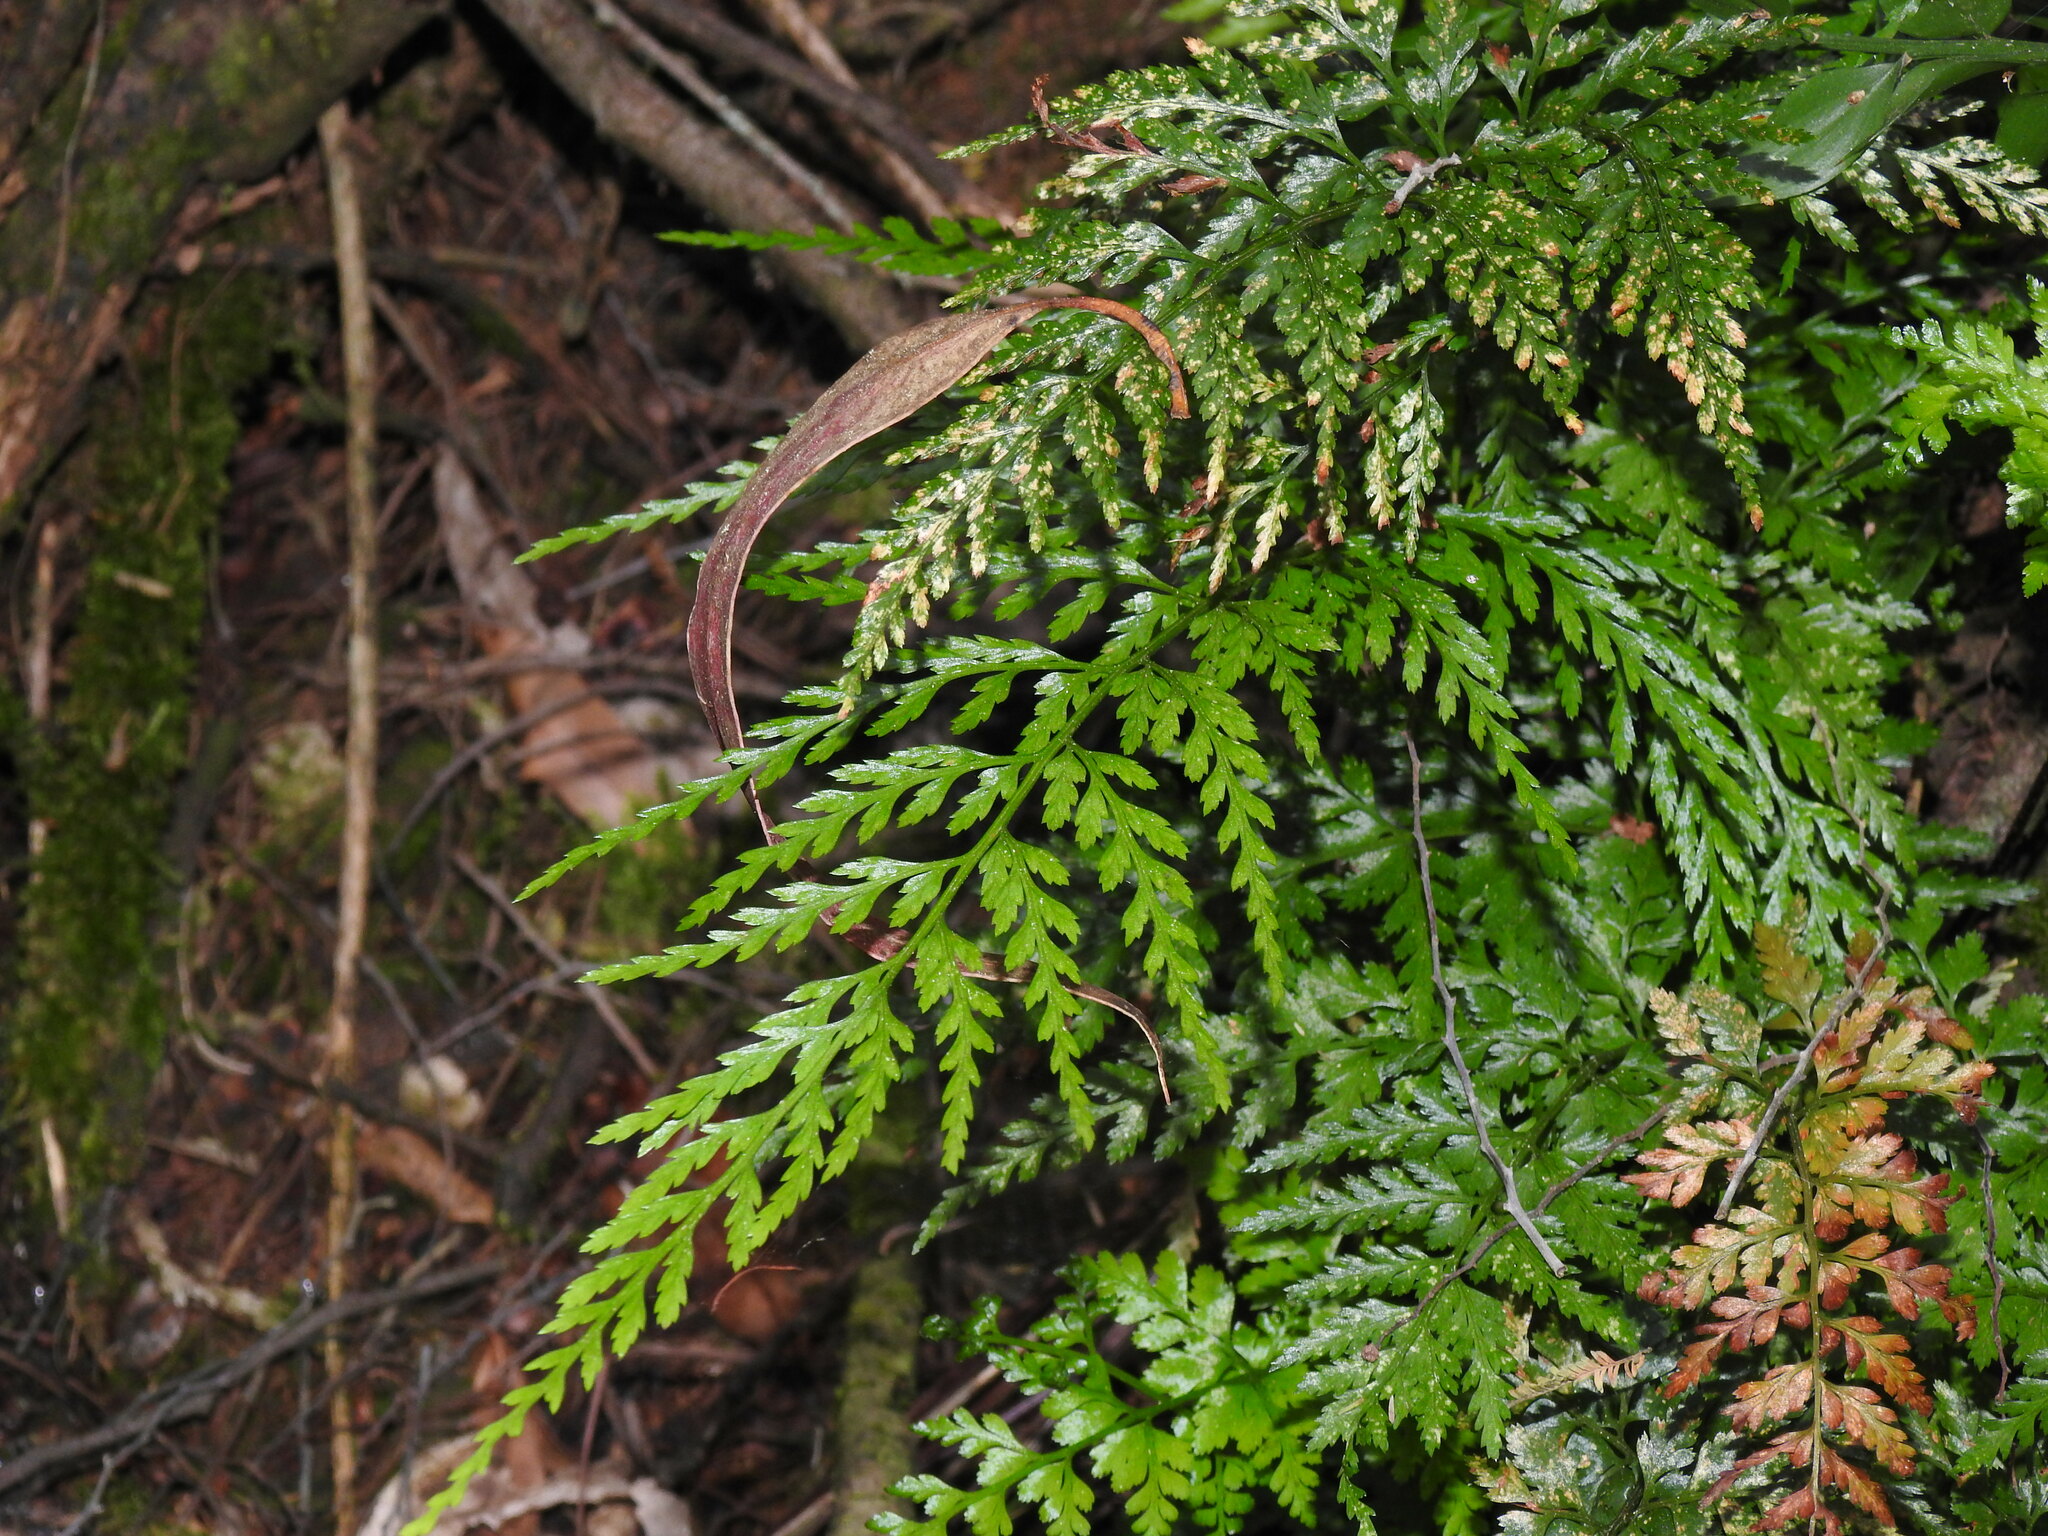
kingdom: Plantae
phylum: Tracheophyta
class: Polypodiopsida
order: Polypodiales
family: Aspleniaceae
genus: Asplenium
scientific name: Asplenium onopteris
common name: Irish spleenwort
